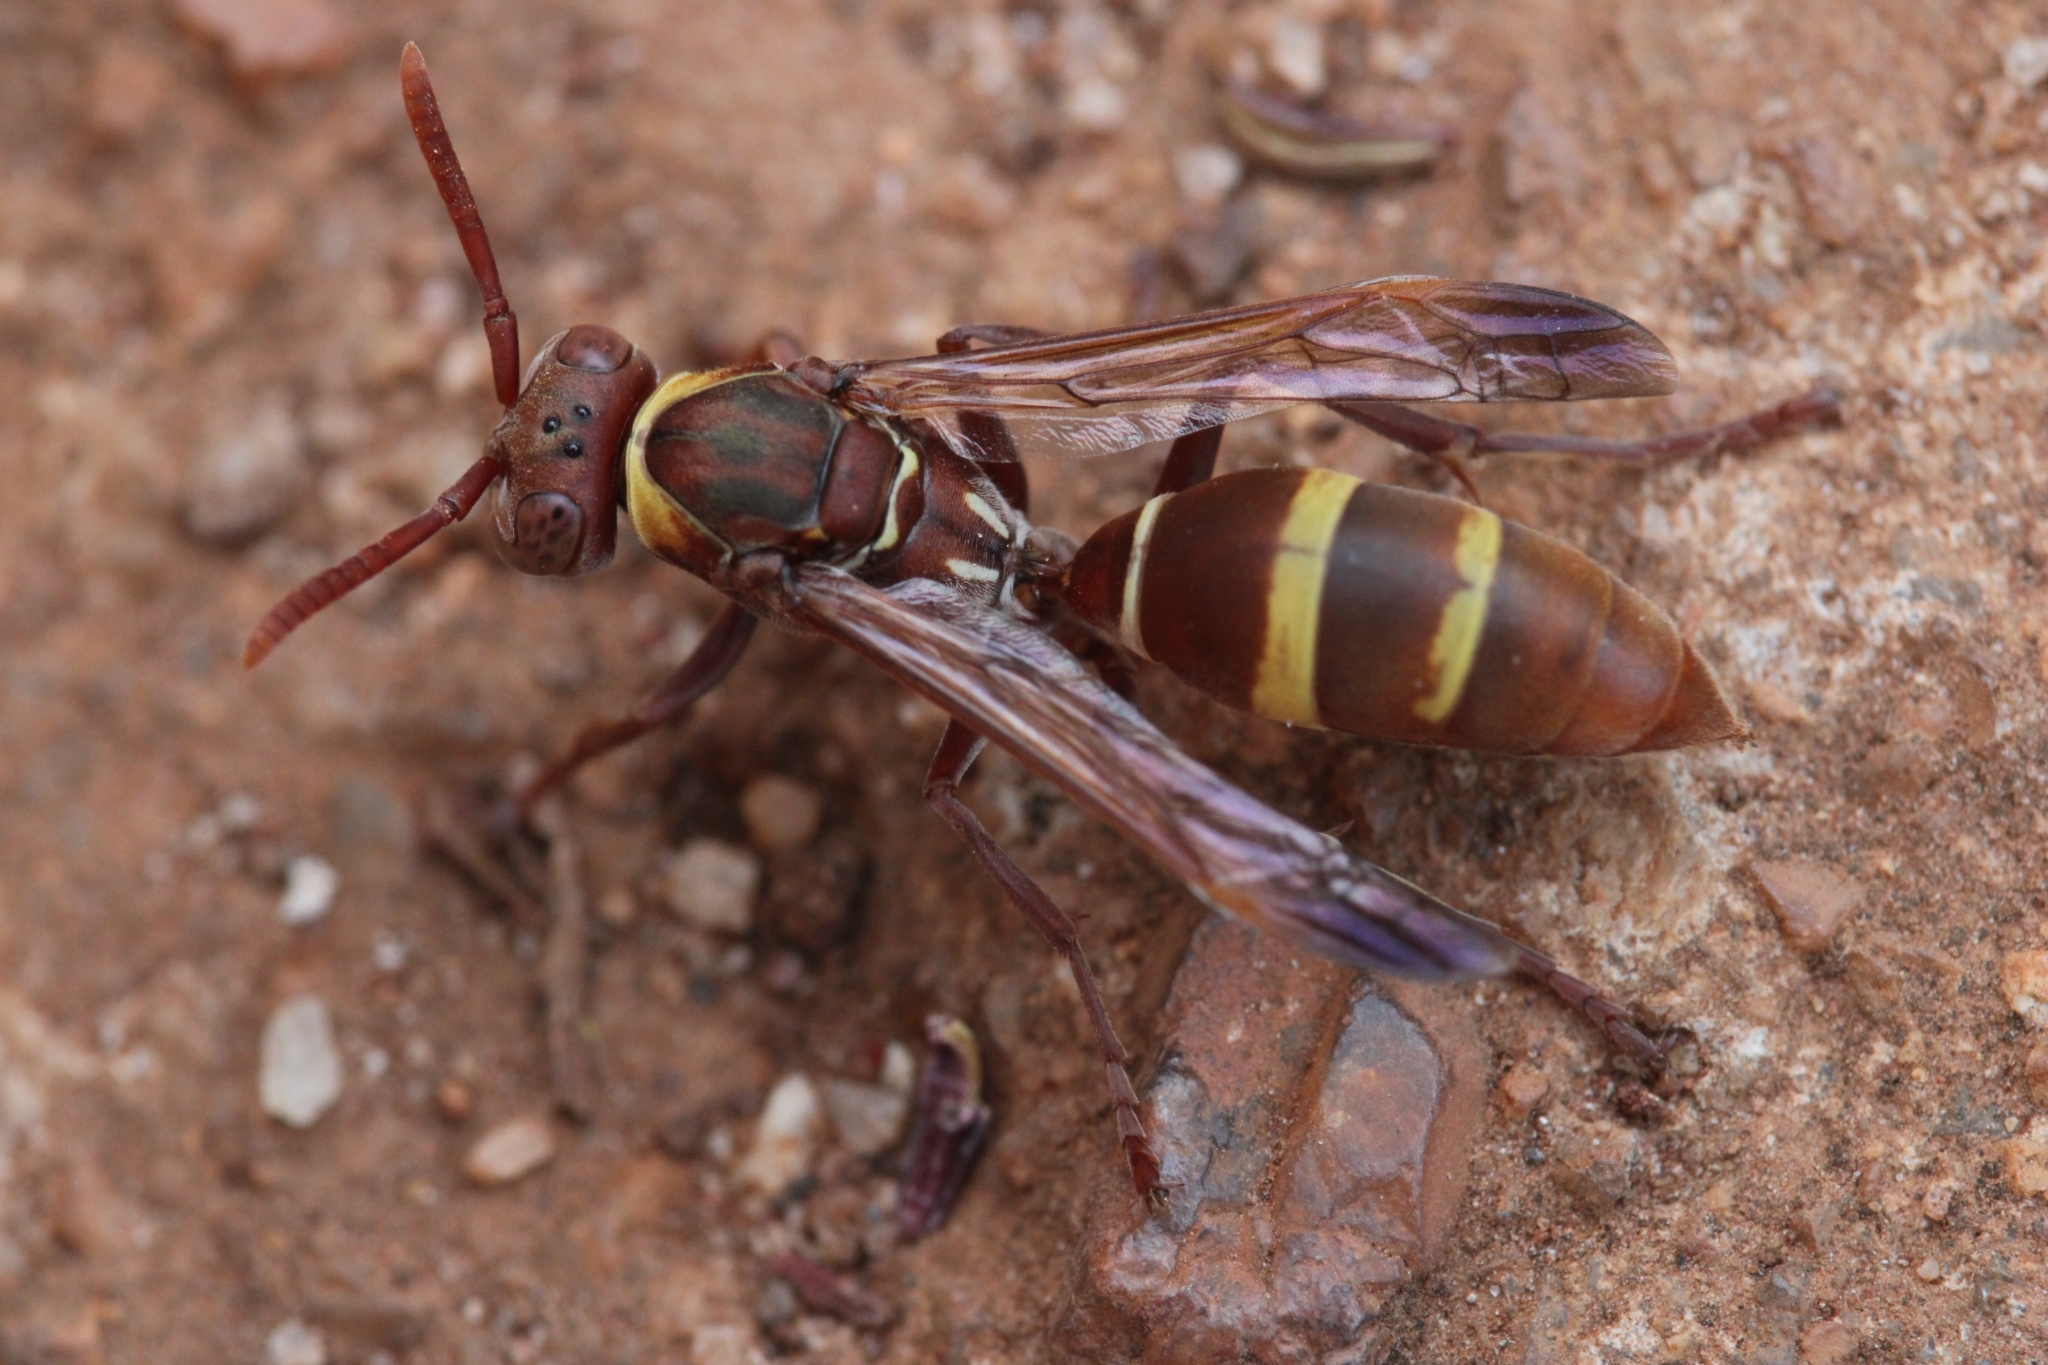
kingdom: Animalia
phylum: Arthropoda
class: Insecta
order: Hymenoptera
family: Eumenidae
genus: Polistes
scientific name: Polistes badius
